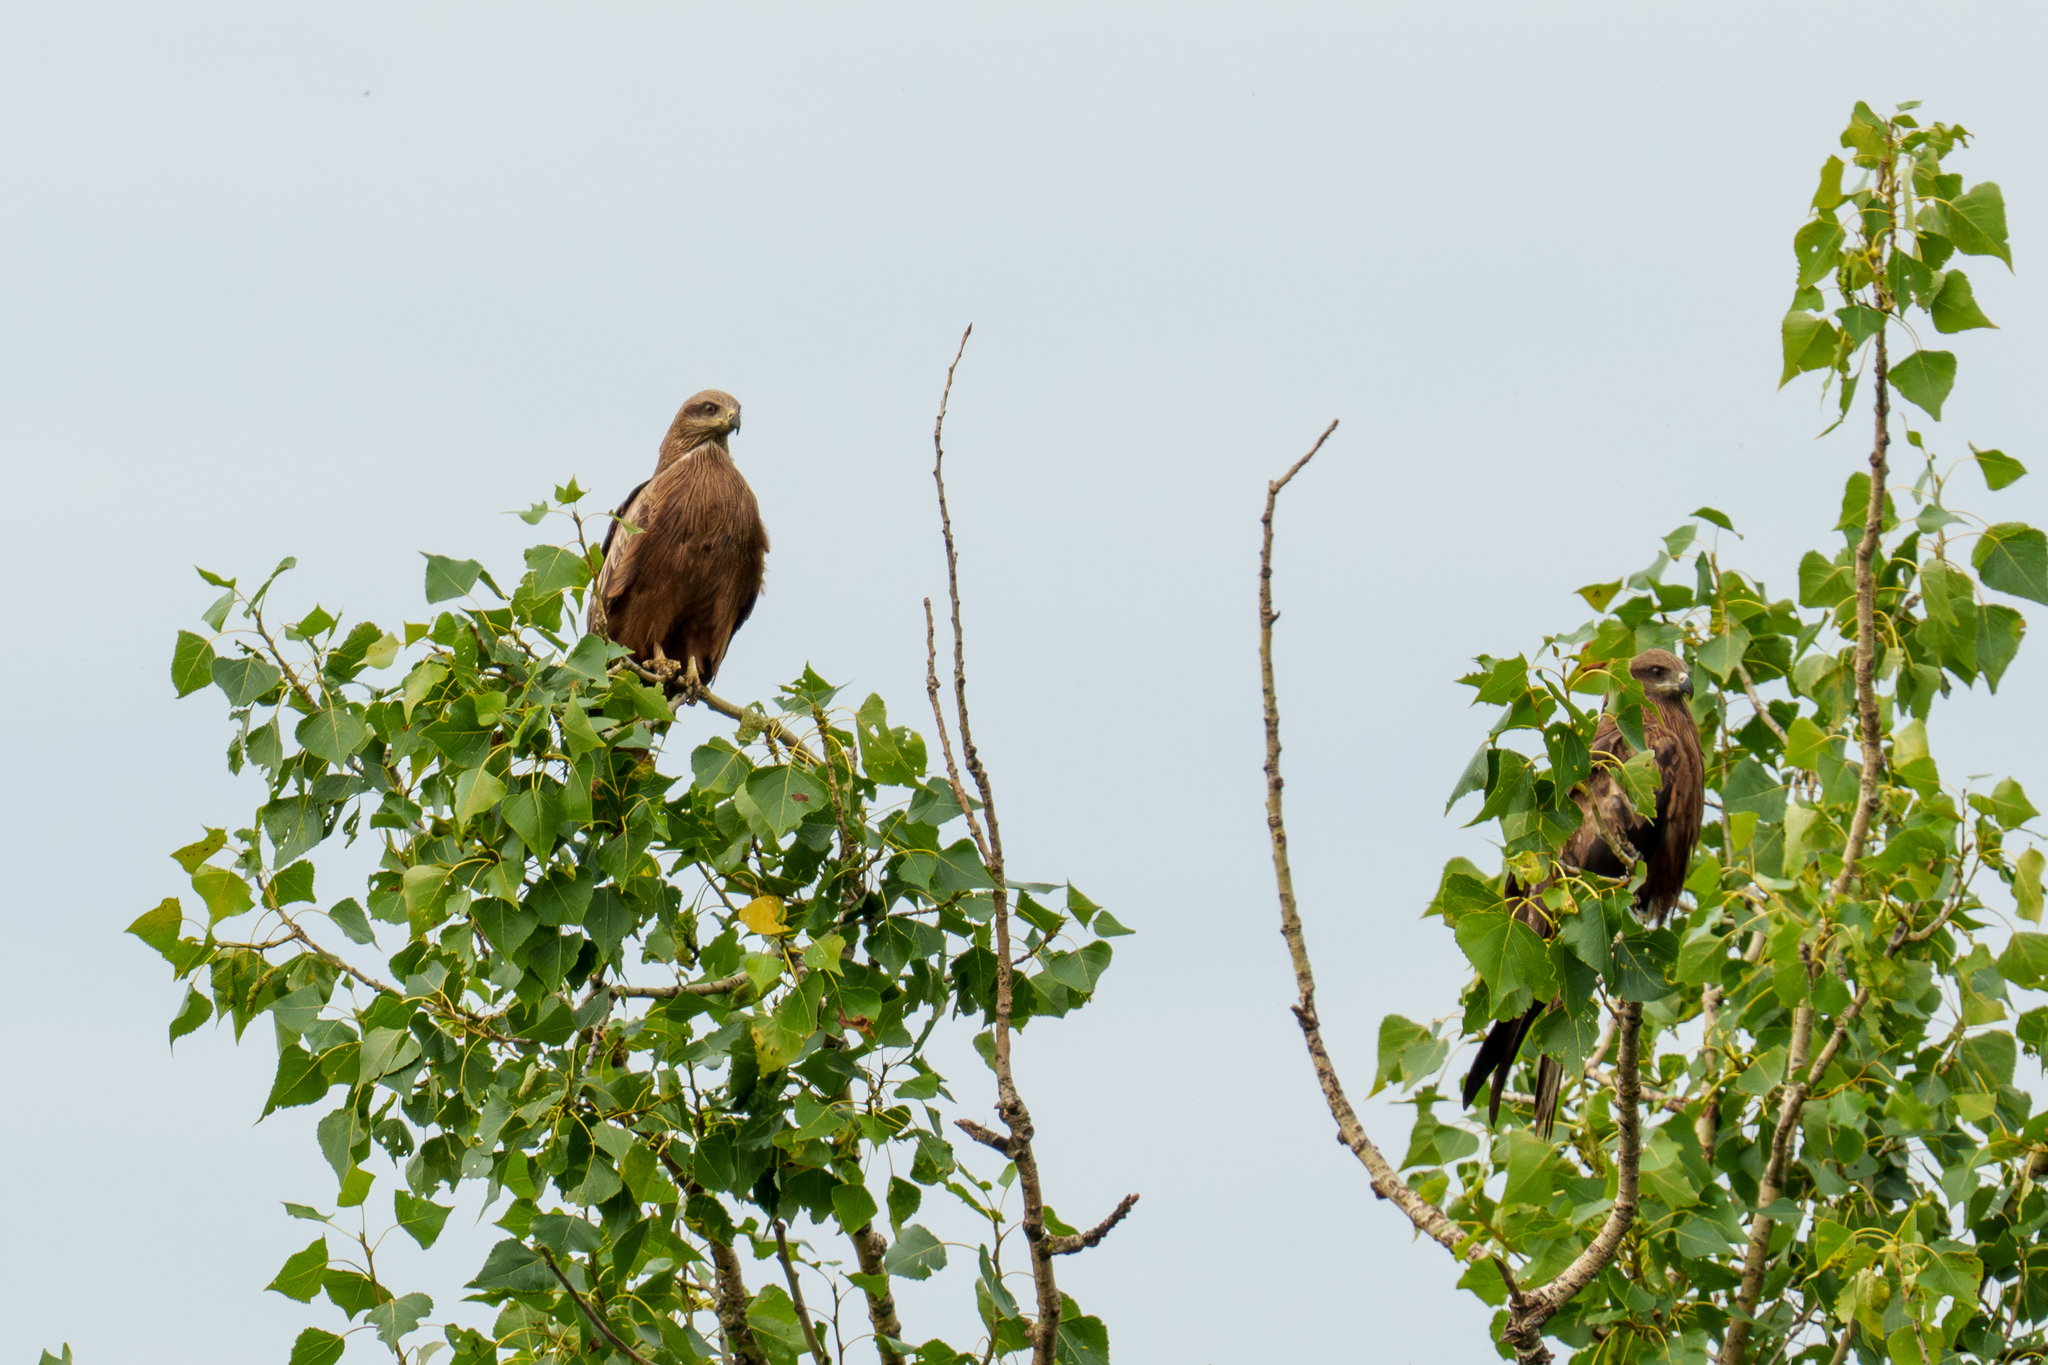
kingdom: Animalia
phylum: Chordata
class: Aves
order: Accipitriformes
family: Accipitridae
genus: Milvus
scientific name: Milvus migrans
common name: Black kite
